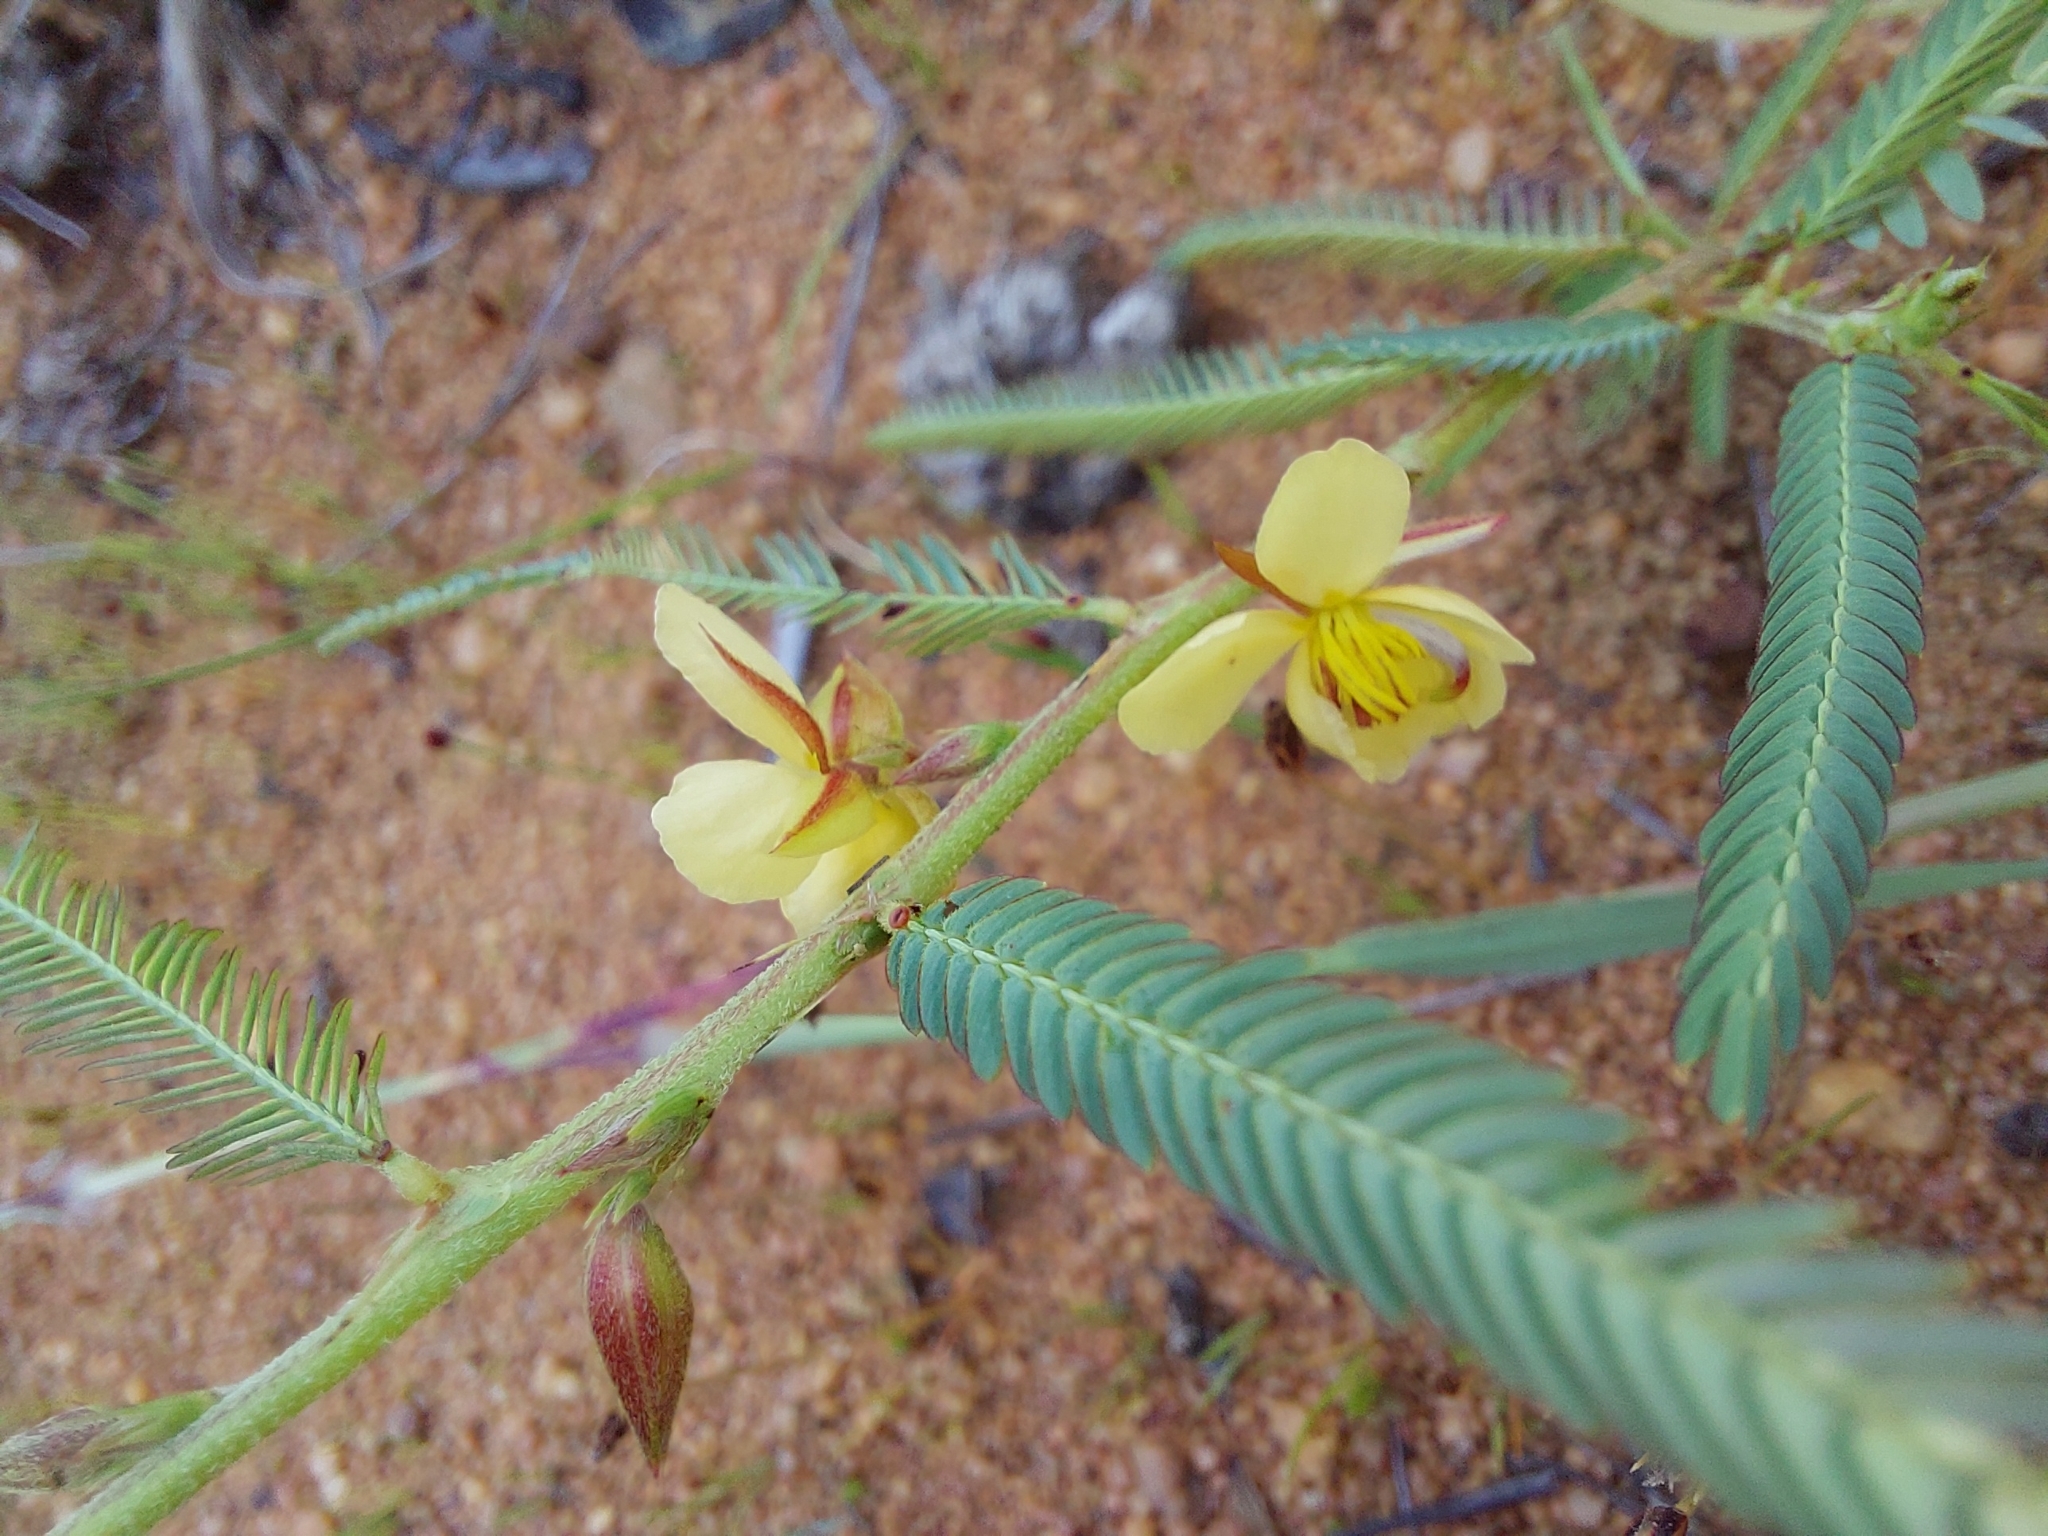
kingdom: Plantae
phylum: Tracheophyta
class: Magnoliopsida
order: Fabales
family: Fabaceae
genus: Chamaecrista
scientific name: Chamaecrista plumosa
